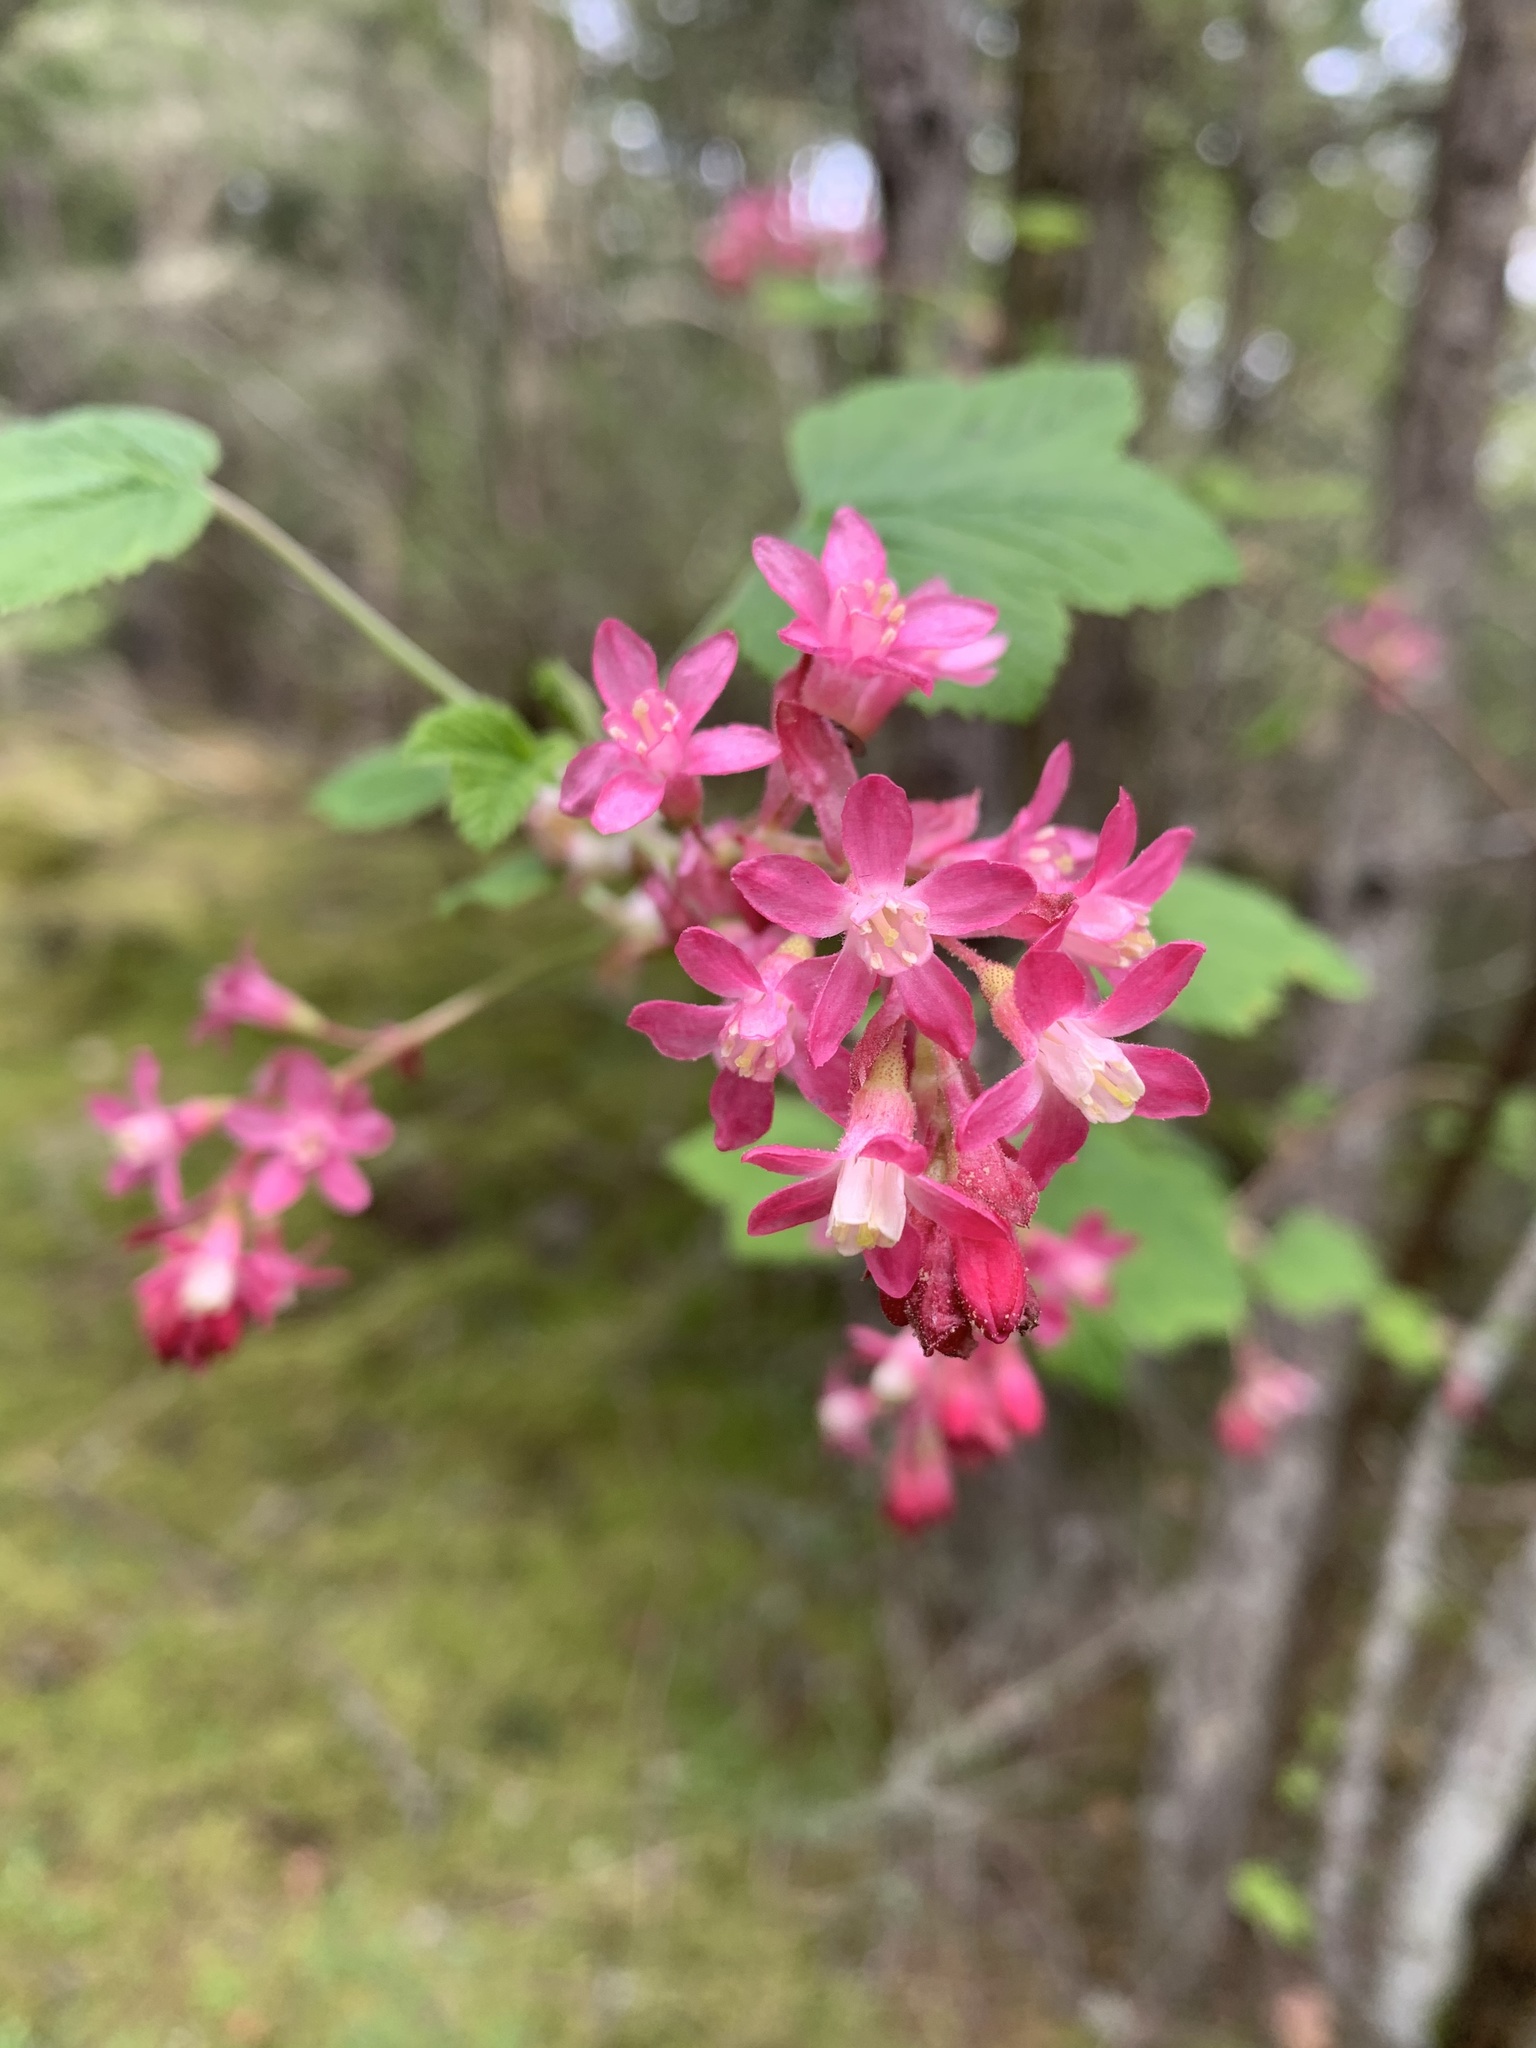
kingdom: Plantae
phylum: Tracheophyta
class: Magnoliopsida
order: Saxifragales
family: Grossulariaceae
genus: Ribes
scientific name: Ribes sanguineum
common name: Flowering currant
